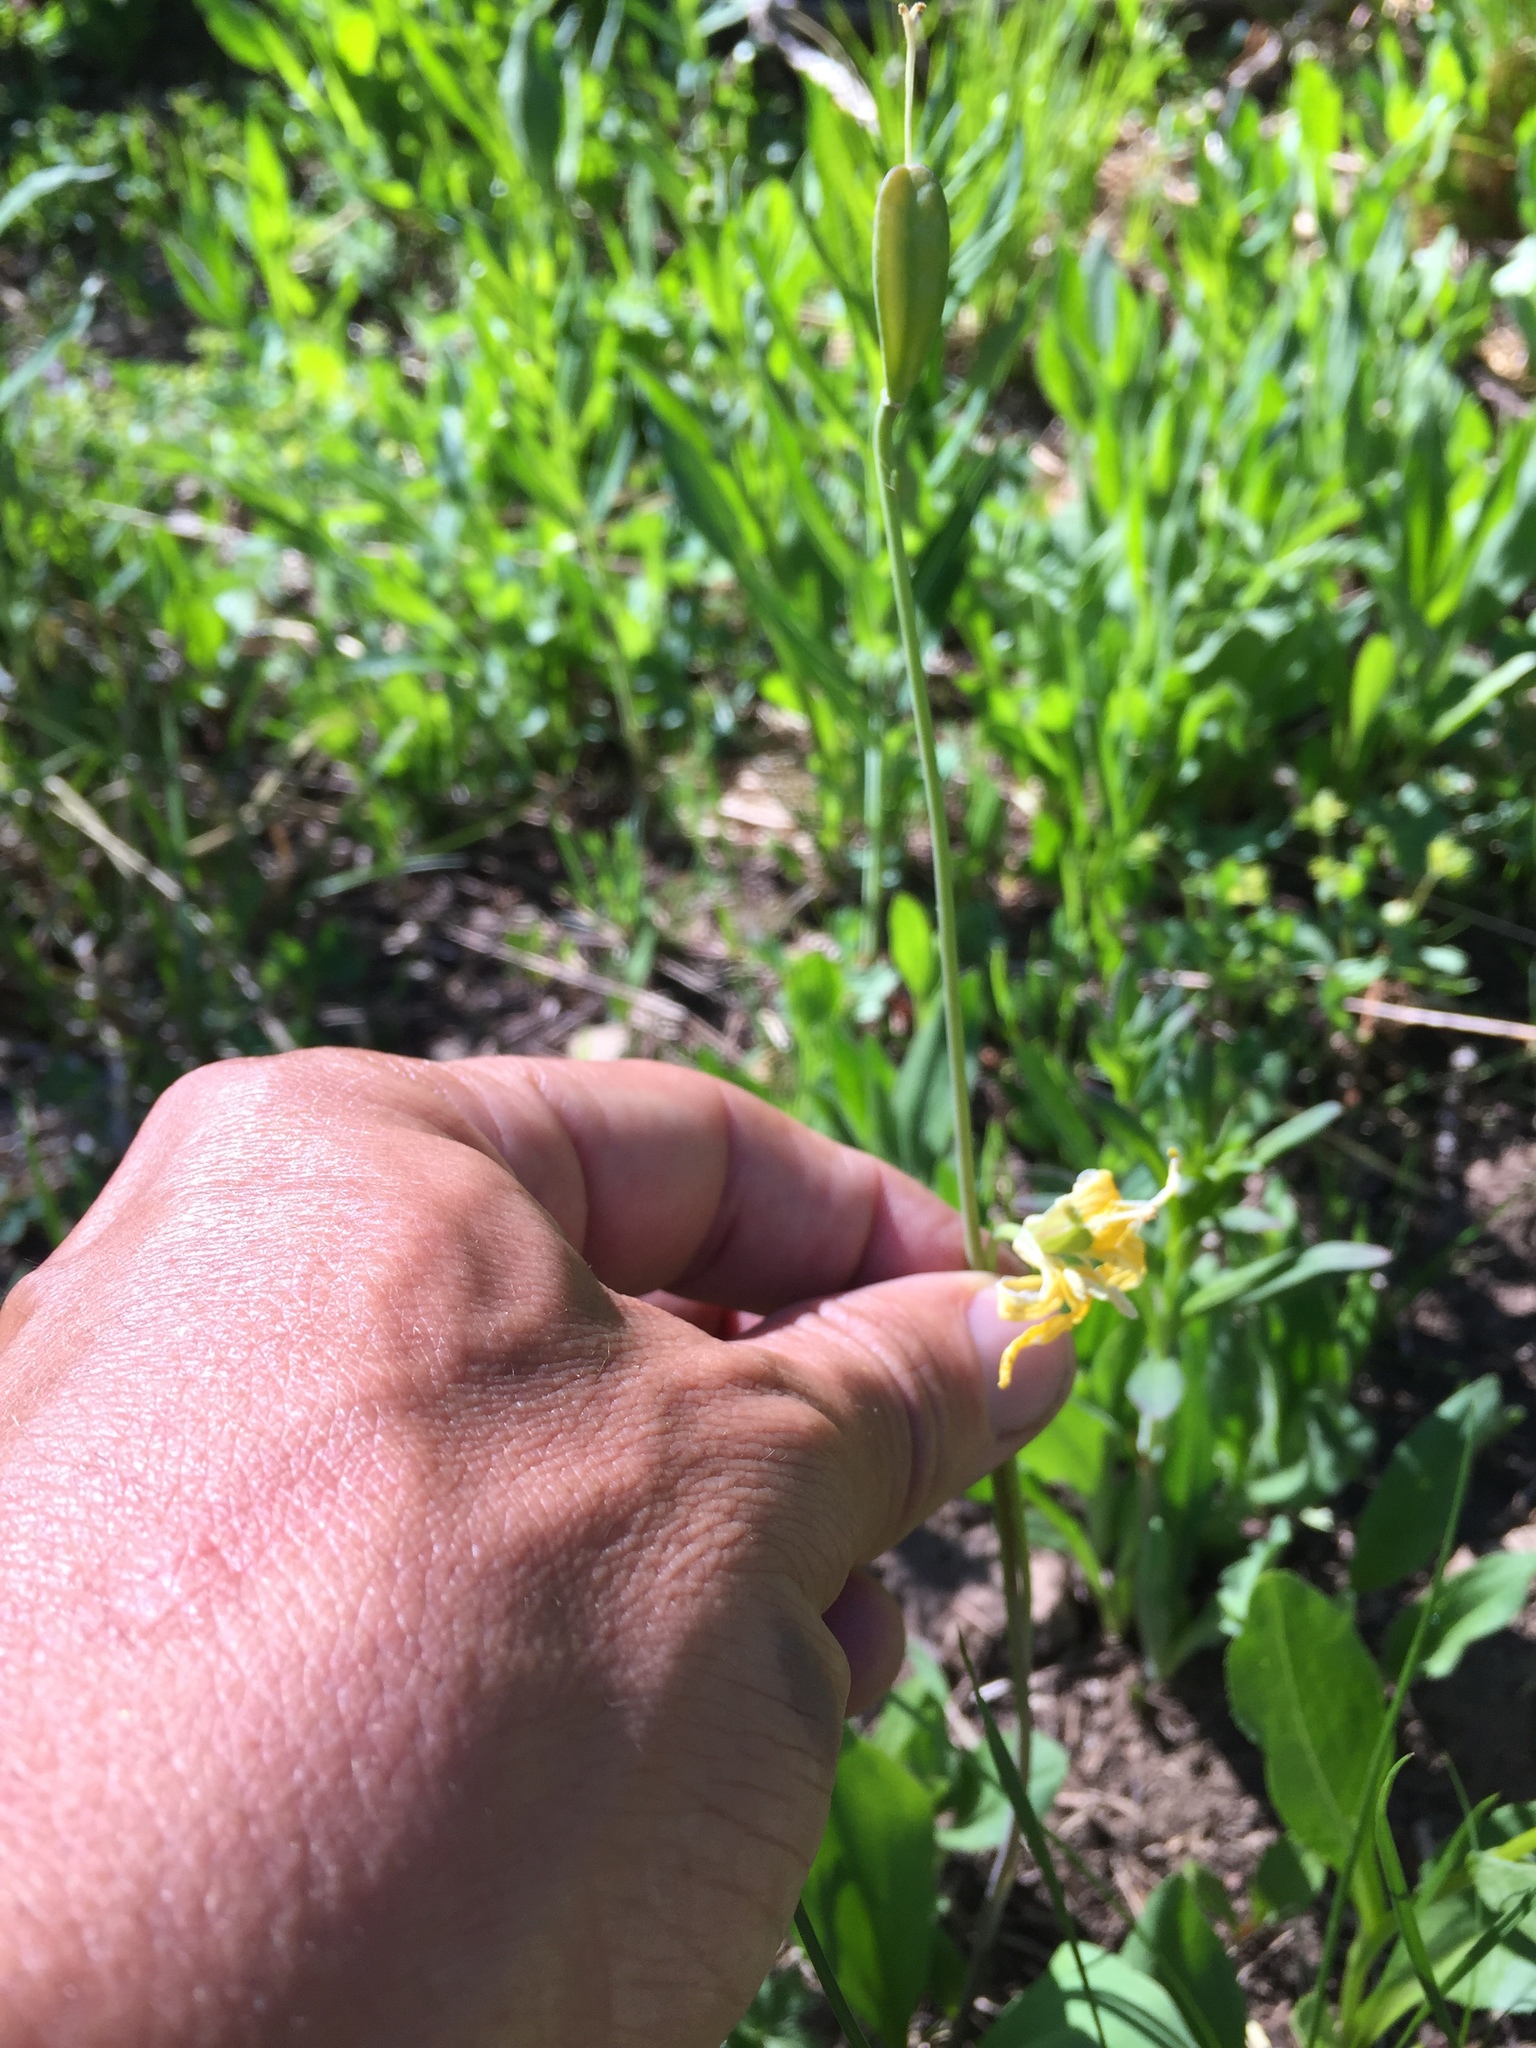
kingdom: Plantae
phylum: Tracheophyta
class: Liliopsida
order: Liliales
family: Liliaceae
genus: Erythronium
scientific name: Erythronium grandiflorum
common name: Avalanche-lily
